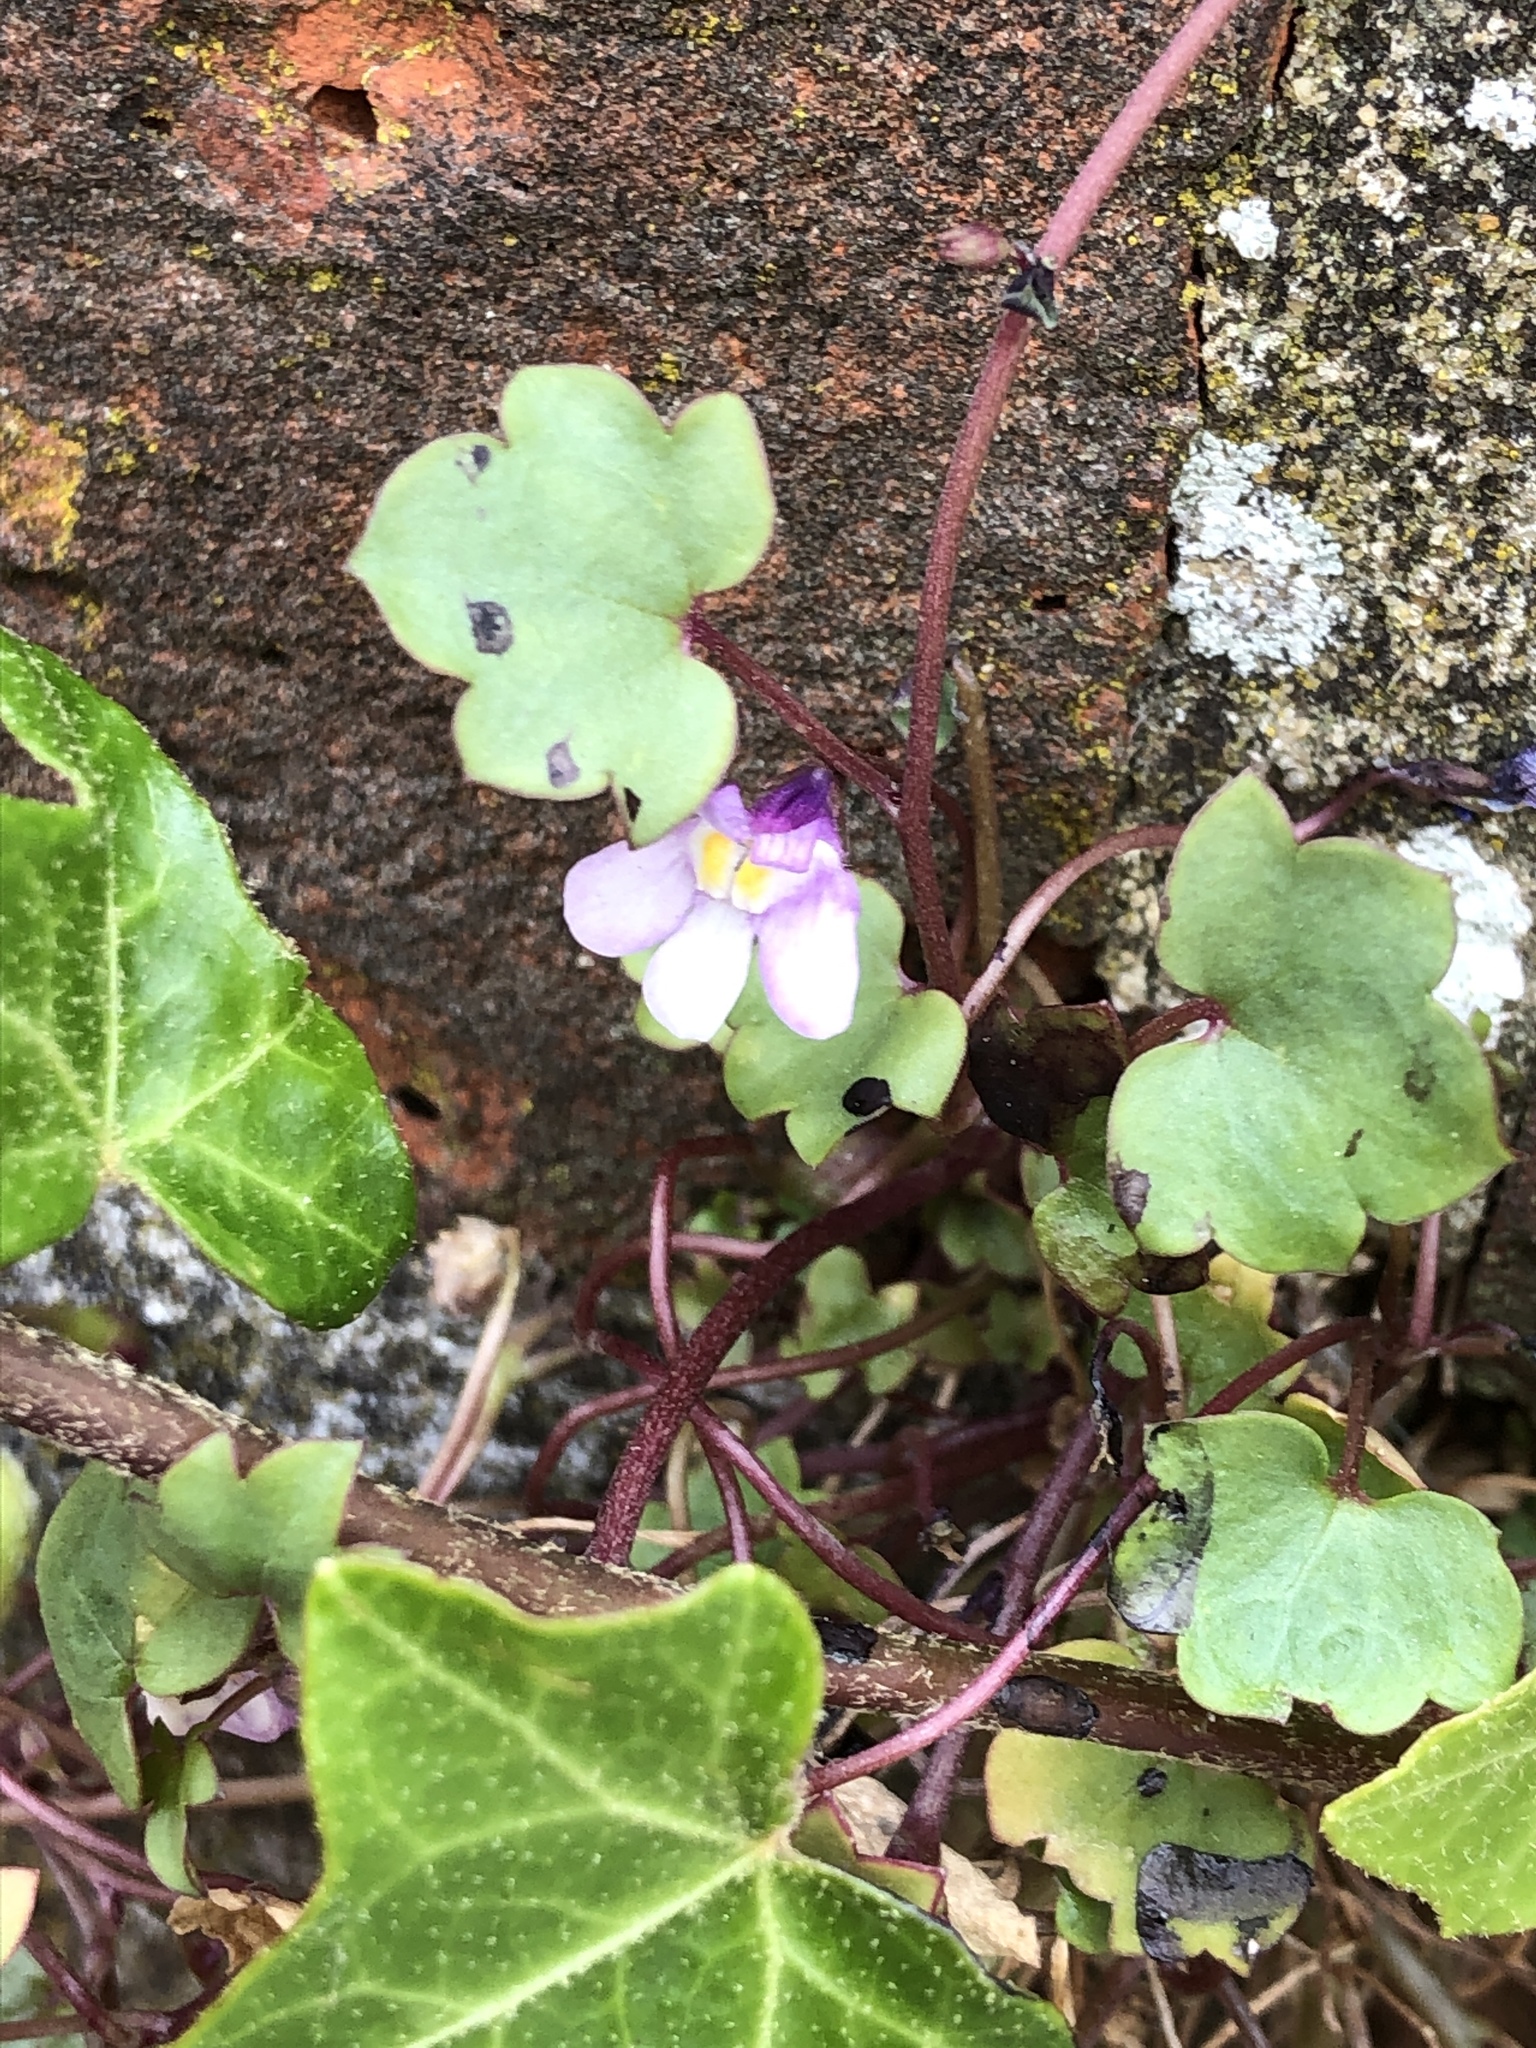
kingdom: Plantae
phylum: Tracheophyta
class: Magnoliopsida
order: Lamiales
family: Plantaginaceae
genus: Cymbalaria
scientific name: Cymbalaria muralis
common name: Ivy-leaved toadflax
